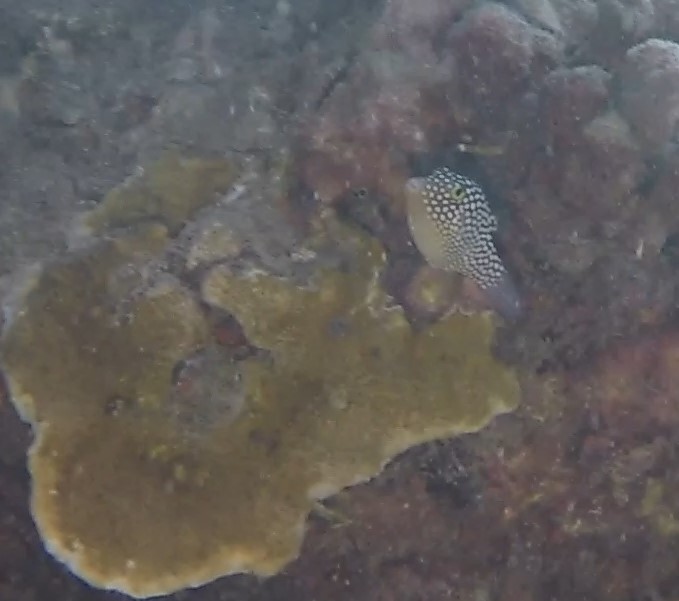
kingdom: Animalia
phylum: Chordata
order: Tetraodontiformes
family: Tetraodontidae
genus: Canthigaster
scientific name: Canthigaster jactator
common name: Hawaiian whitespotted toby
